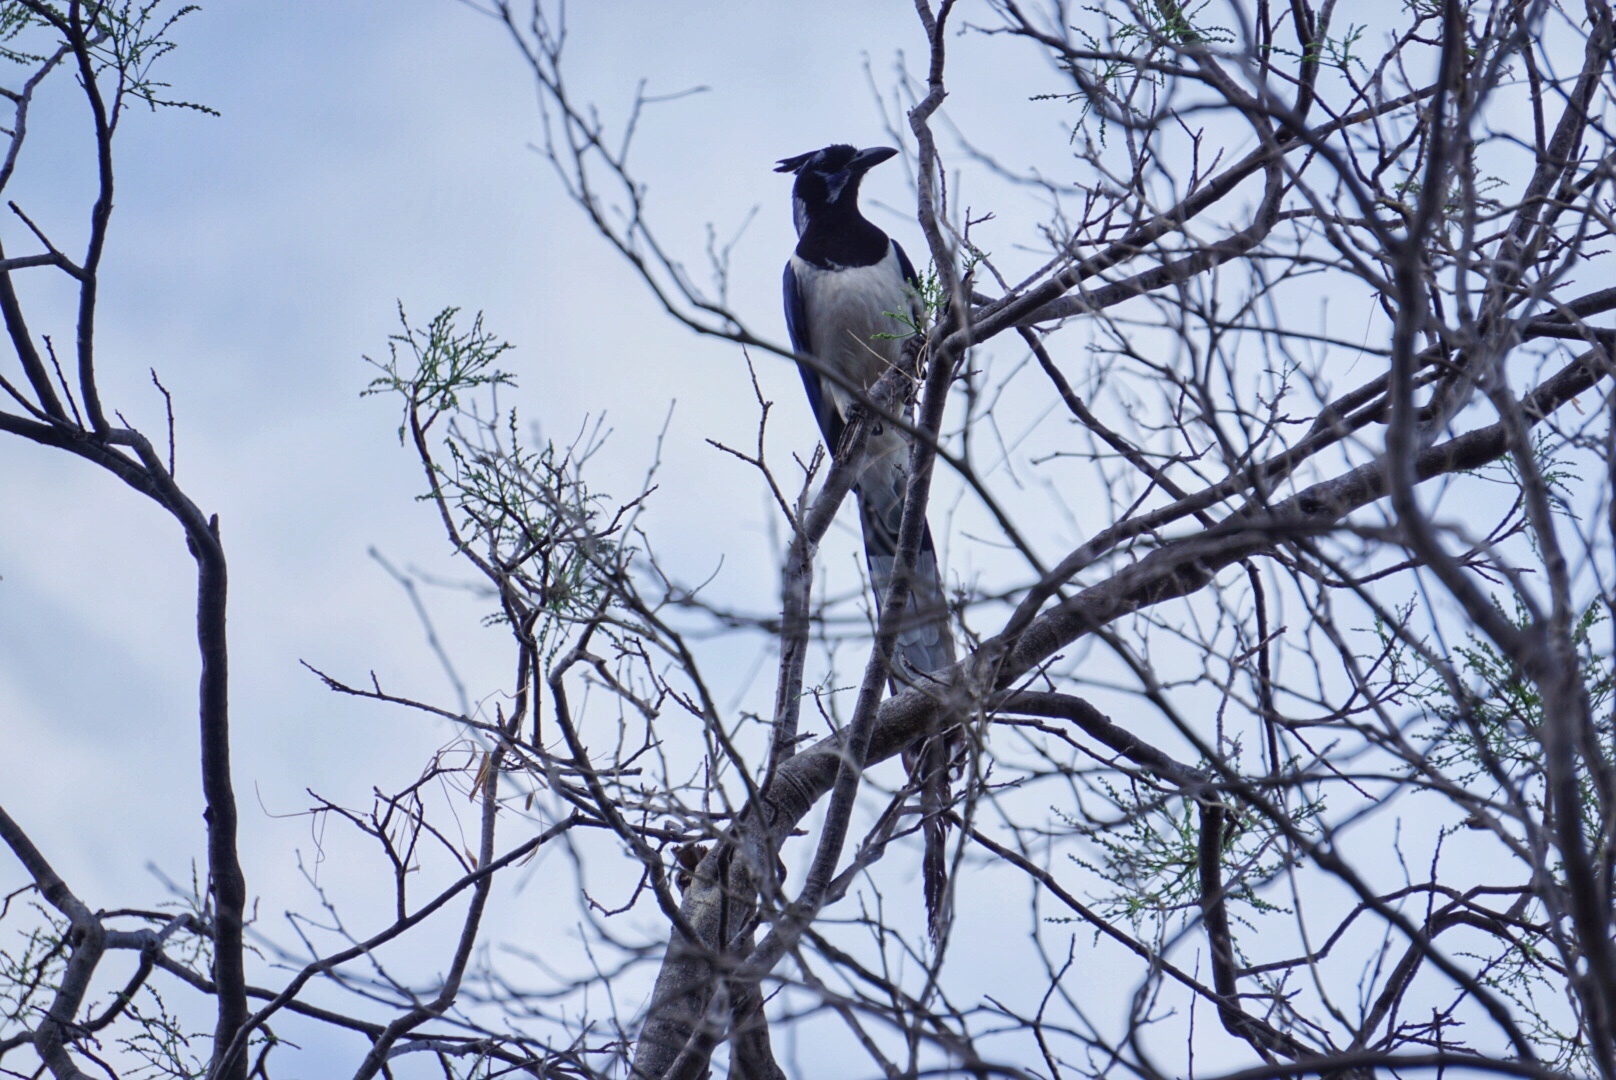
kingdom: Animalia
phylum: Chordata
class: Aves
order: Passeriformes
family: Corvidae
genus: Calocitta
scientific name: Calocitta colliei
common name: Black-throated magpie-jay
